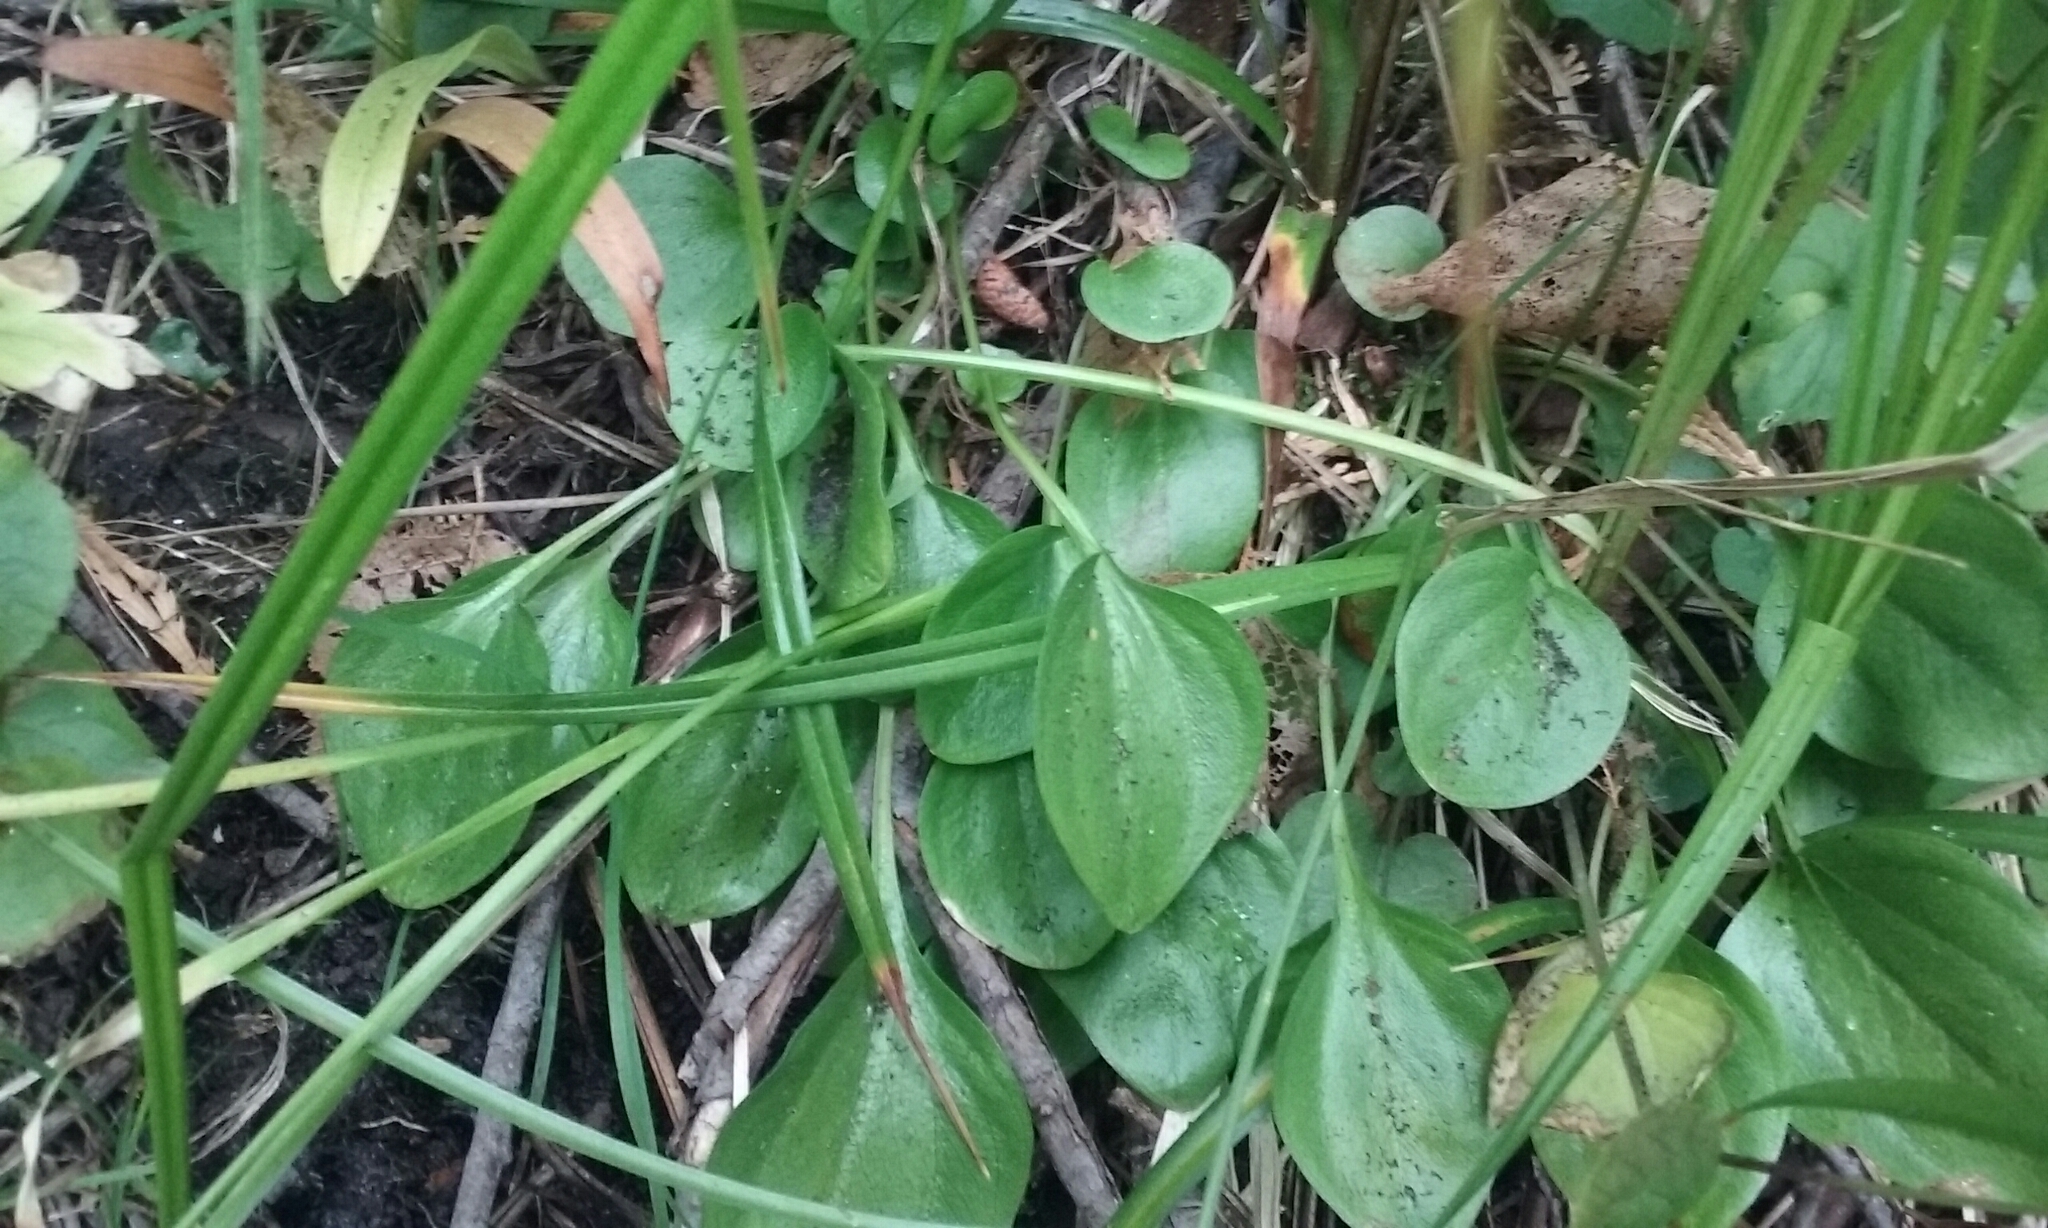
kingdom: Plantae
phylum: Tracheophyta
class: Magnoliopsida
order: Celastrales
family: Parnassiaceae
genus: Parnassia
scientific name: Parnassia palustris
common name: Grass-of-parnassus
